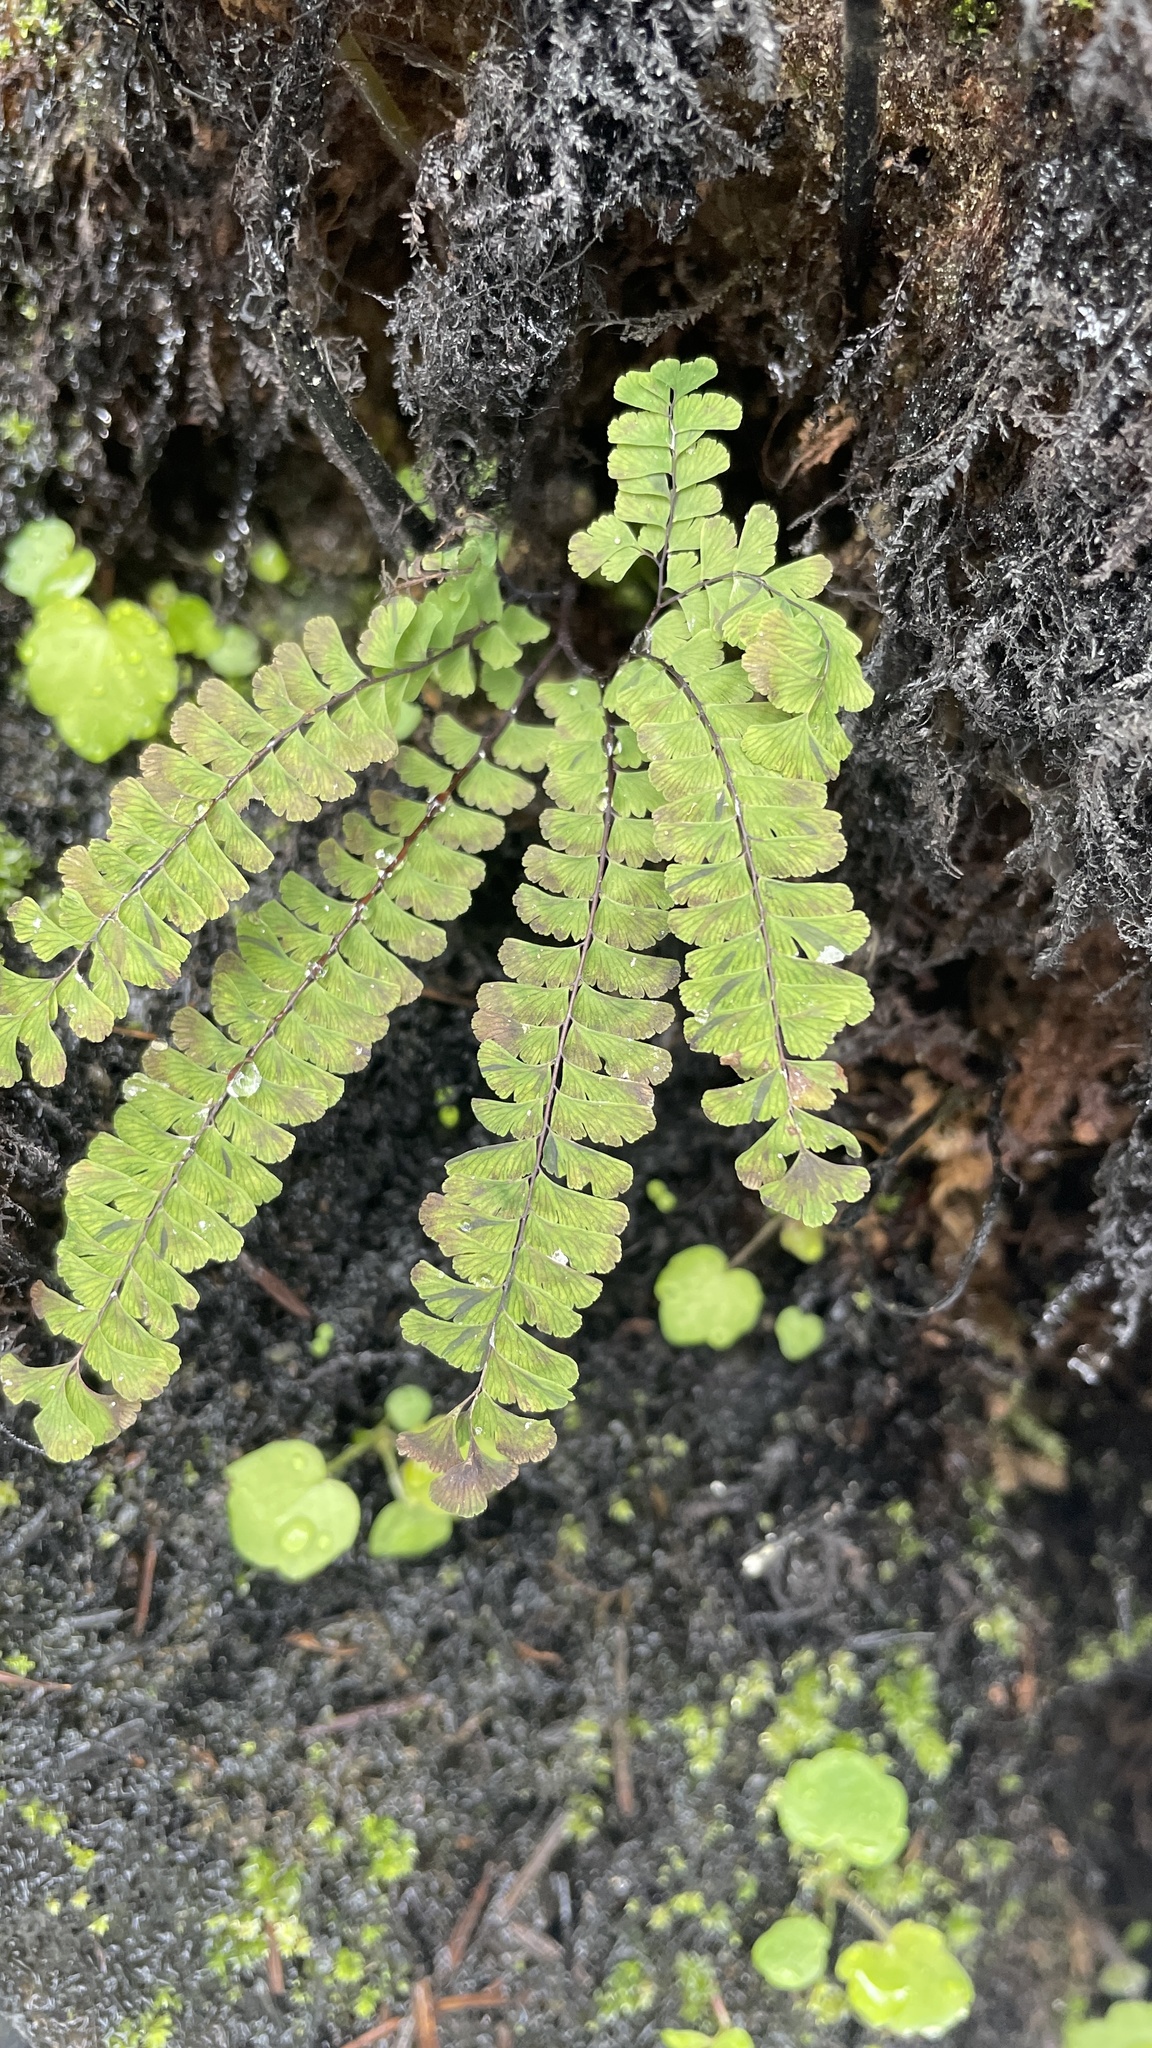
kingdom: Plantae
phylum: Tracheophyta
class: Polypodiopsida
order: Polypodiales
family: Pteridaceae
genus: Adiantum
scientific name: Adiantum aleuticum
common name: Aleutian maidenhair fern
